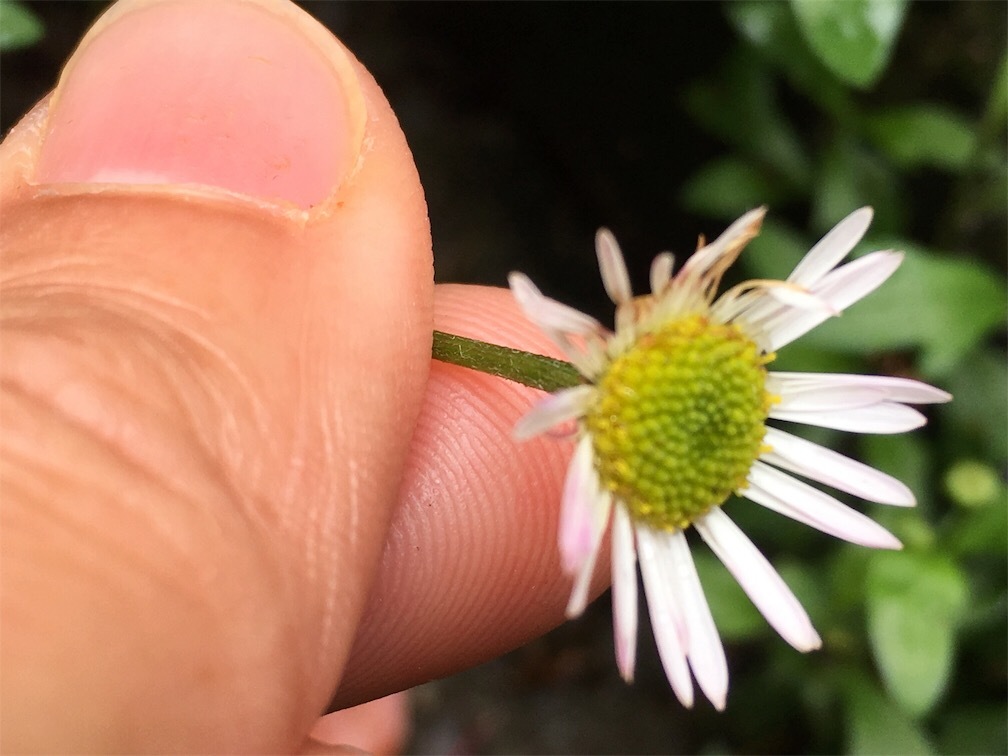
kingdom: Plantae
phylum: Tracheophyta
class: Magnoliopsida
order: Asterales
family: Asteraceae
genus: Erigeron
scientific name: Erigeron karvinskianus
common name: Mexican fleabane
